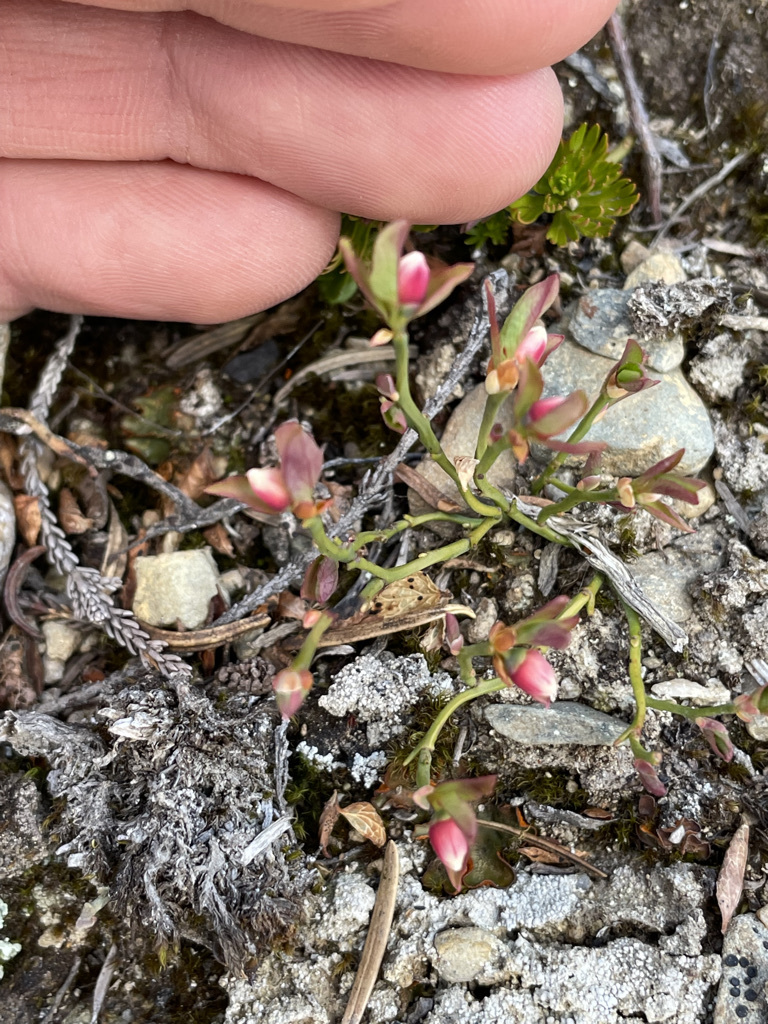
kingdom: Plantae
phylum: Tracheophyta
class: Magnoliopsida
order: Ericales
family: Ericaceae
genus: Vaccinium
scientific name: Vaccinium scoparium
